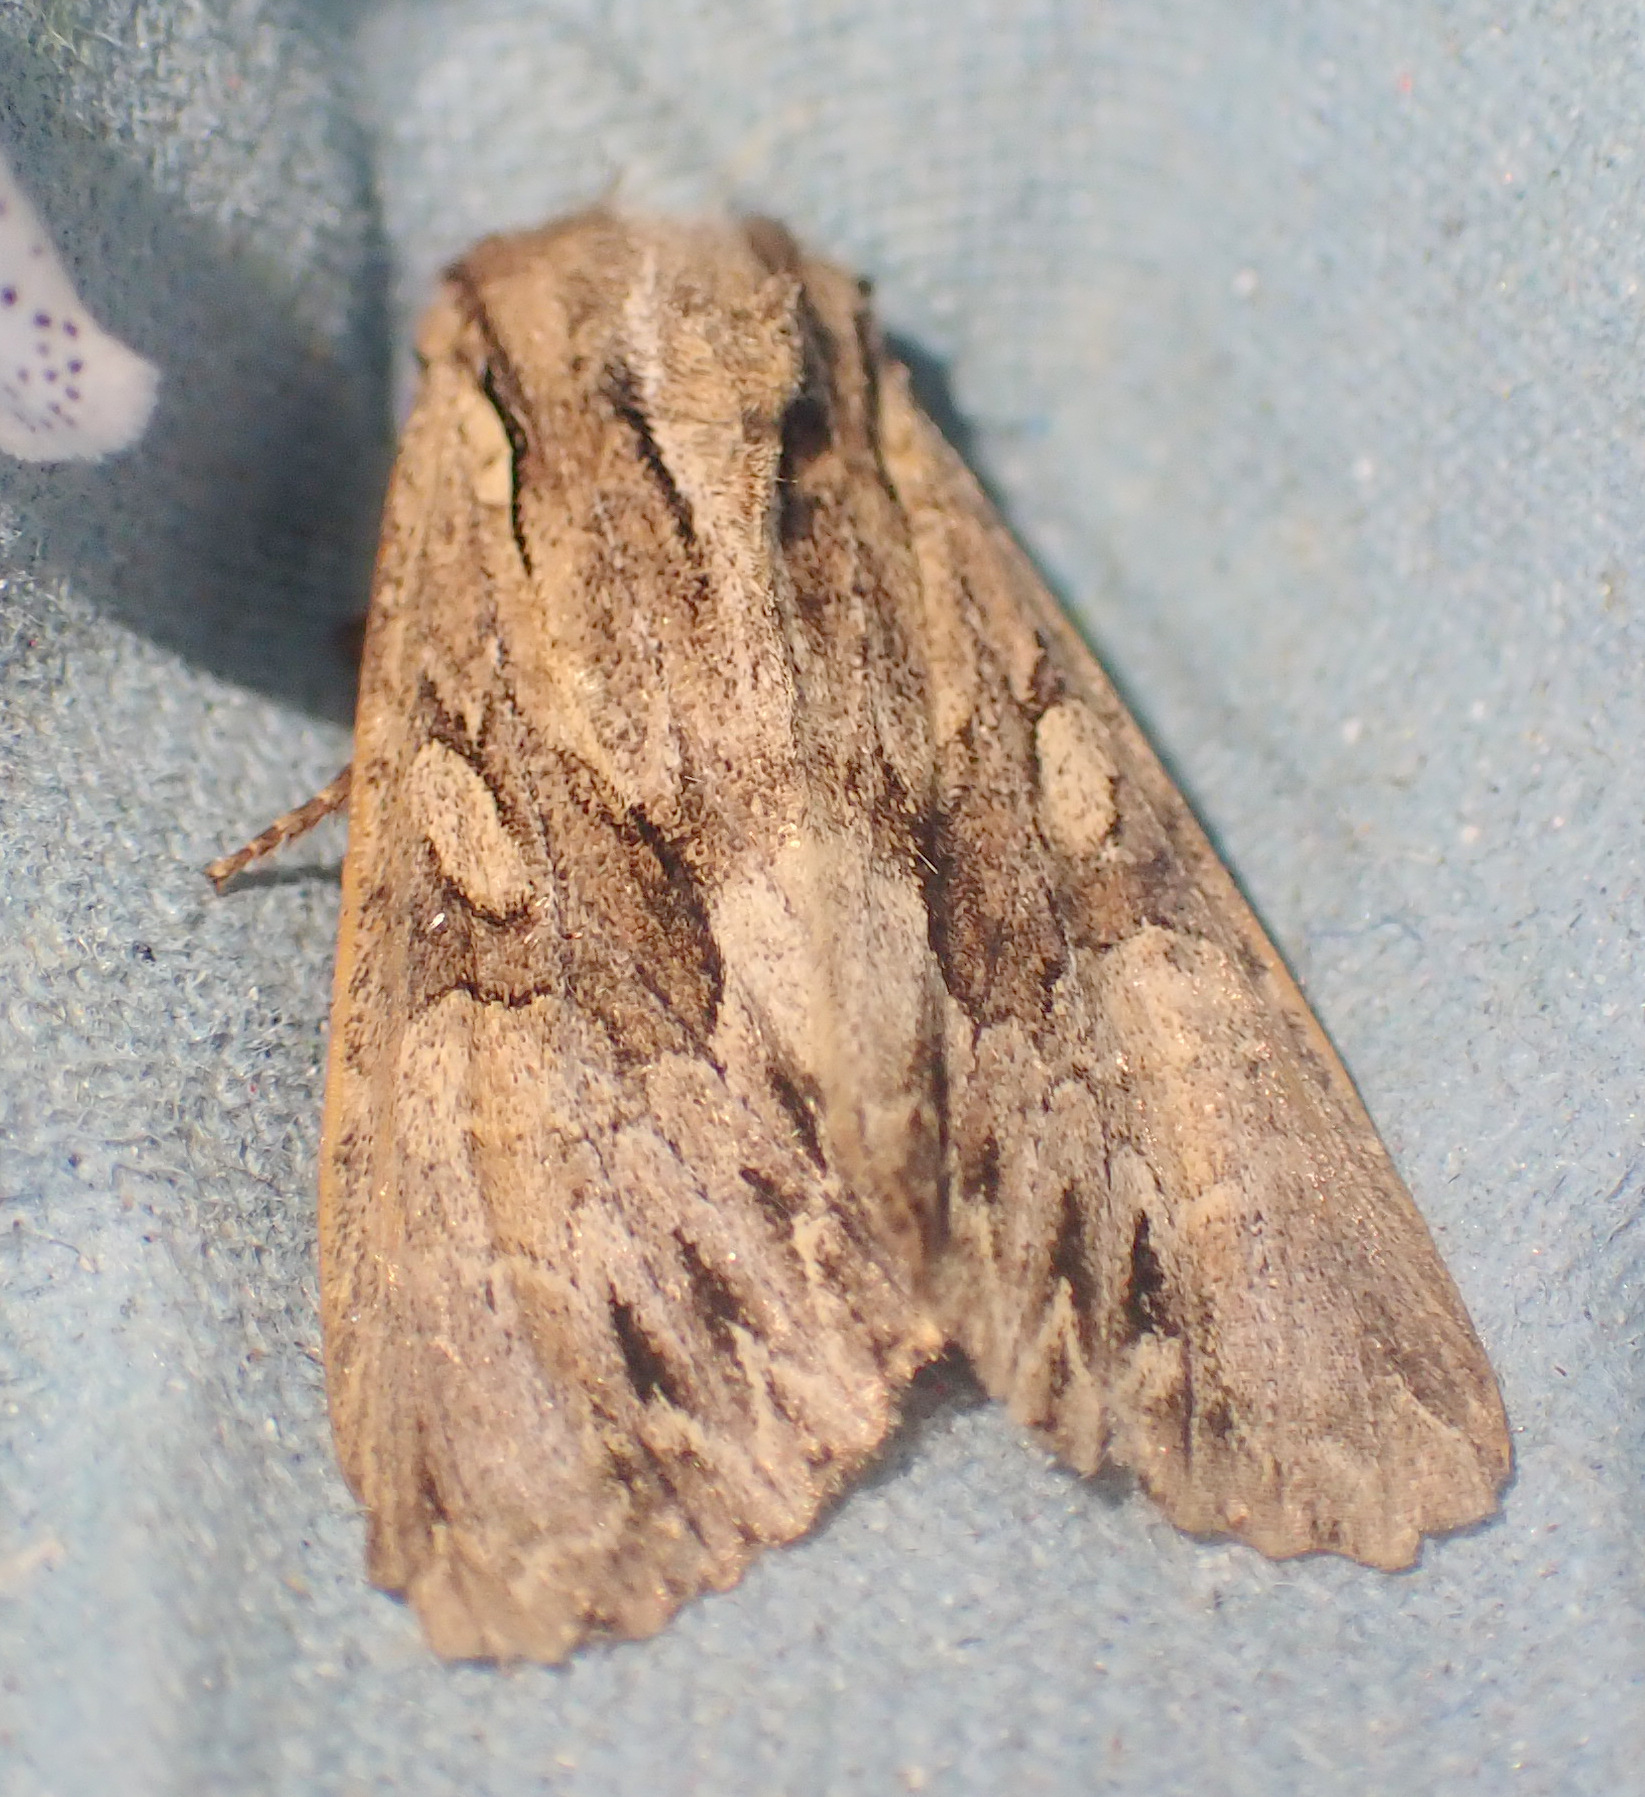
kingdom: Animalia
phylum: Arthropoda
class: Insecta
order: Lepidoptera
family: Noctuidae
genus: Apamea
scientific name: Apamea monoglypha
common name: Dark arches
